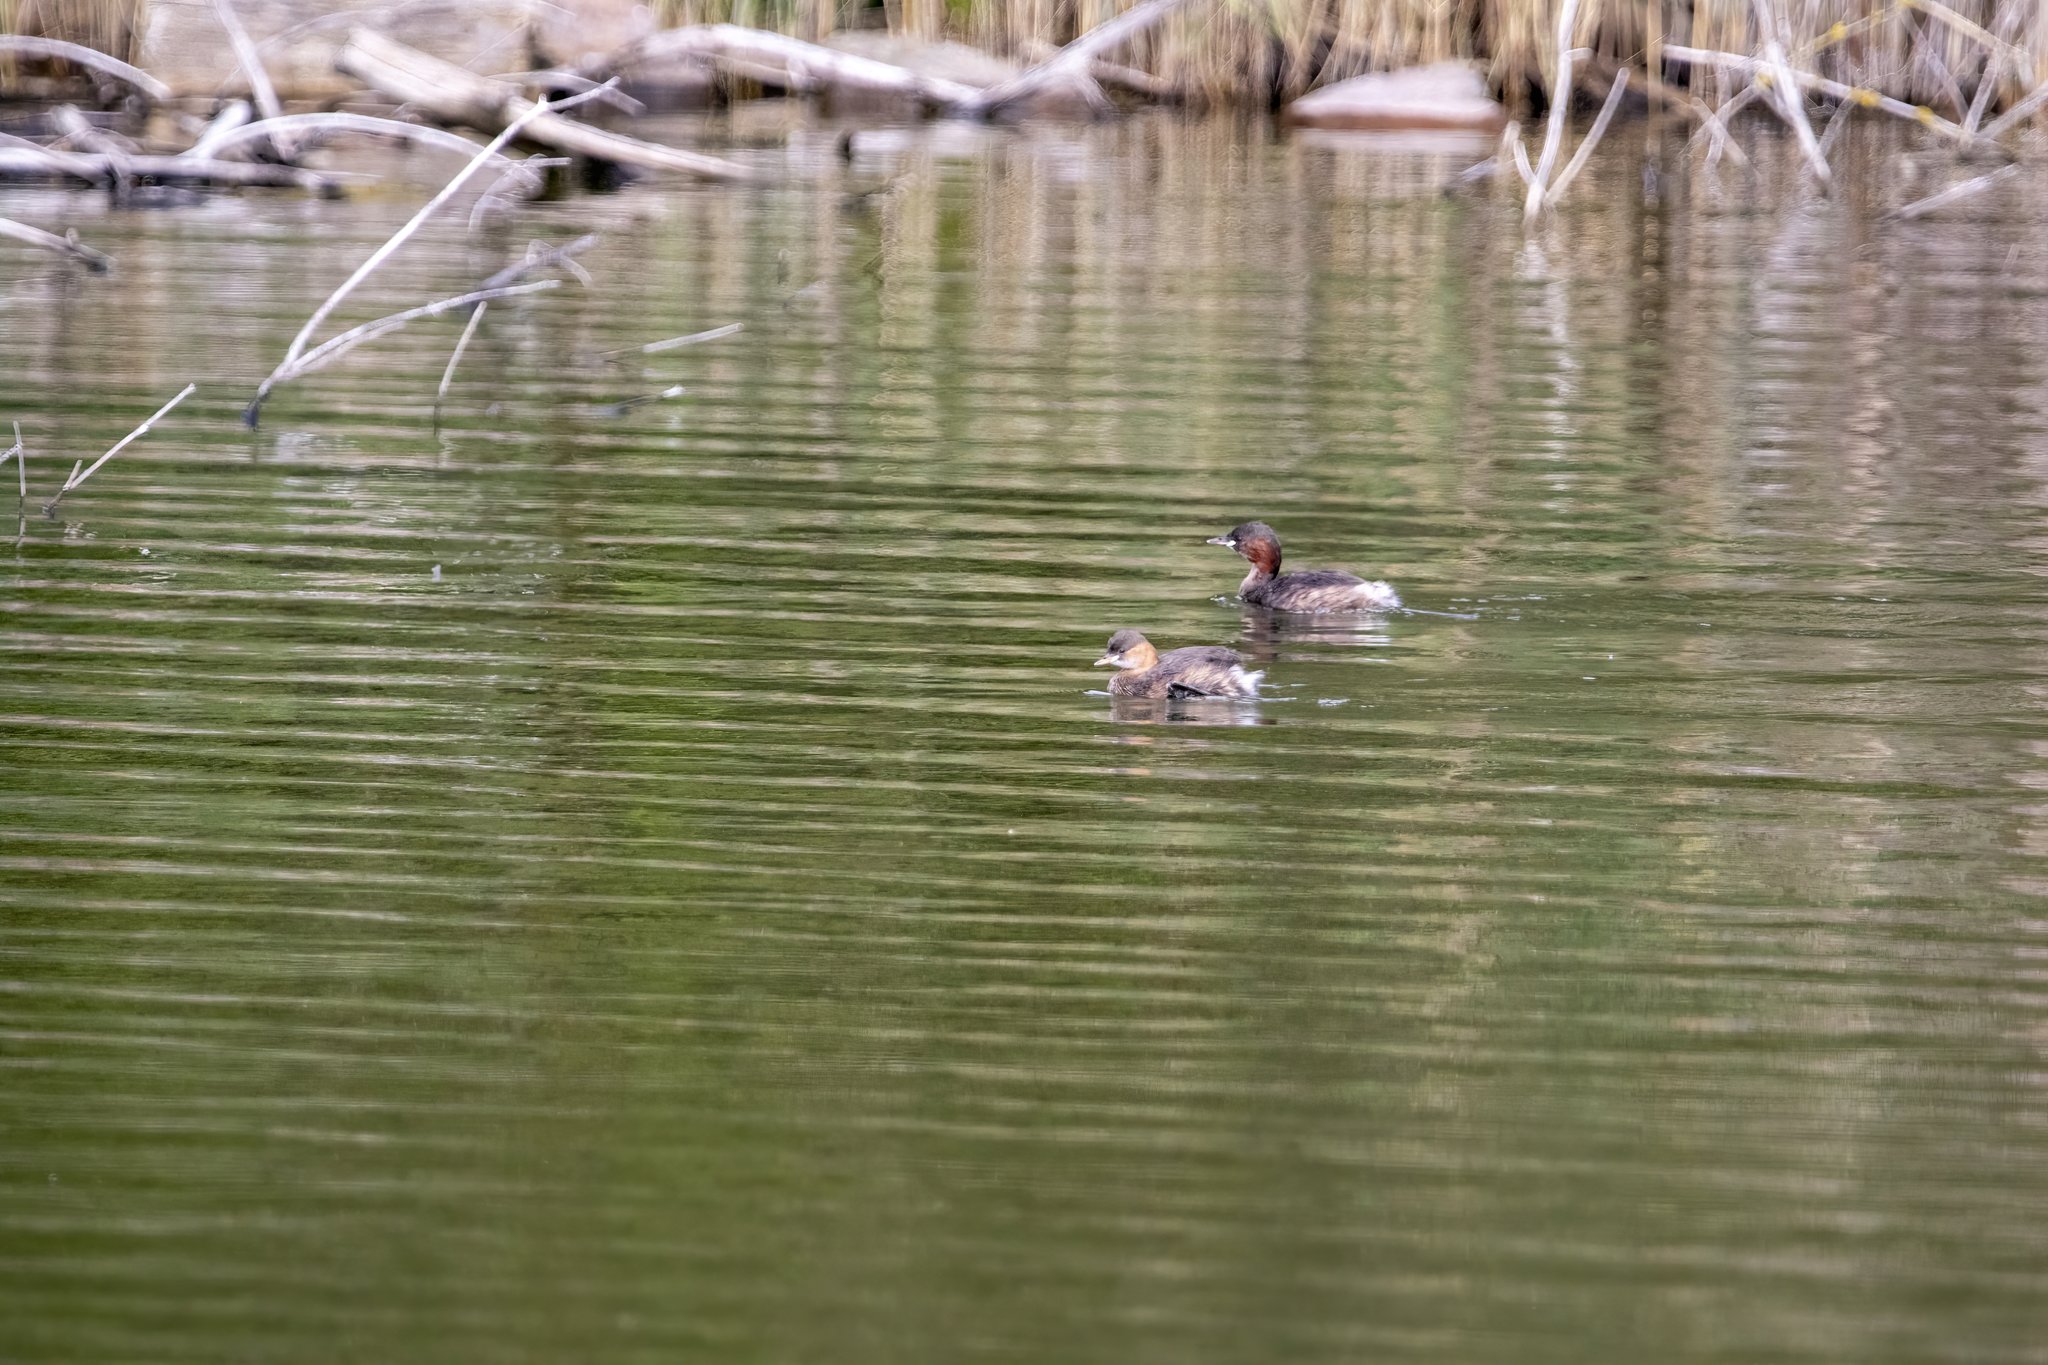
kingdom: Animalia
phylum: Chordata
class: Aves
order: Podicipediformes
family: Podicipedidae
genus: Tachybaptus
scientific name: Tachybaptus ruficollis
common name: Little grebe
